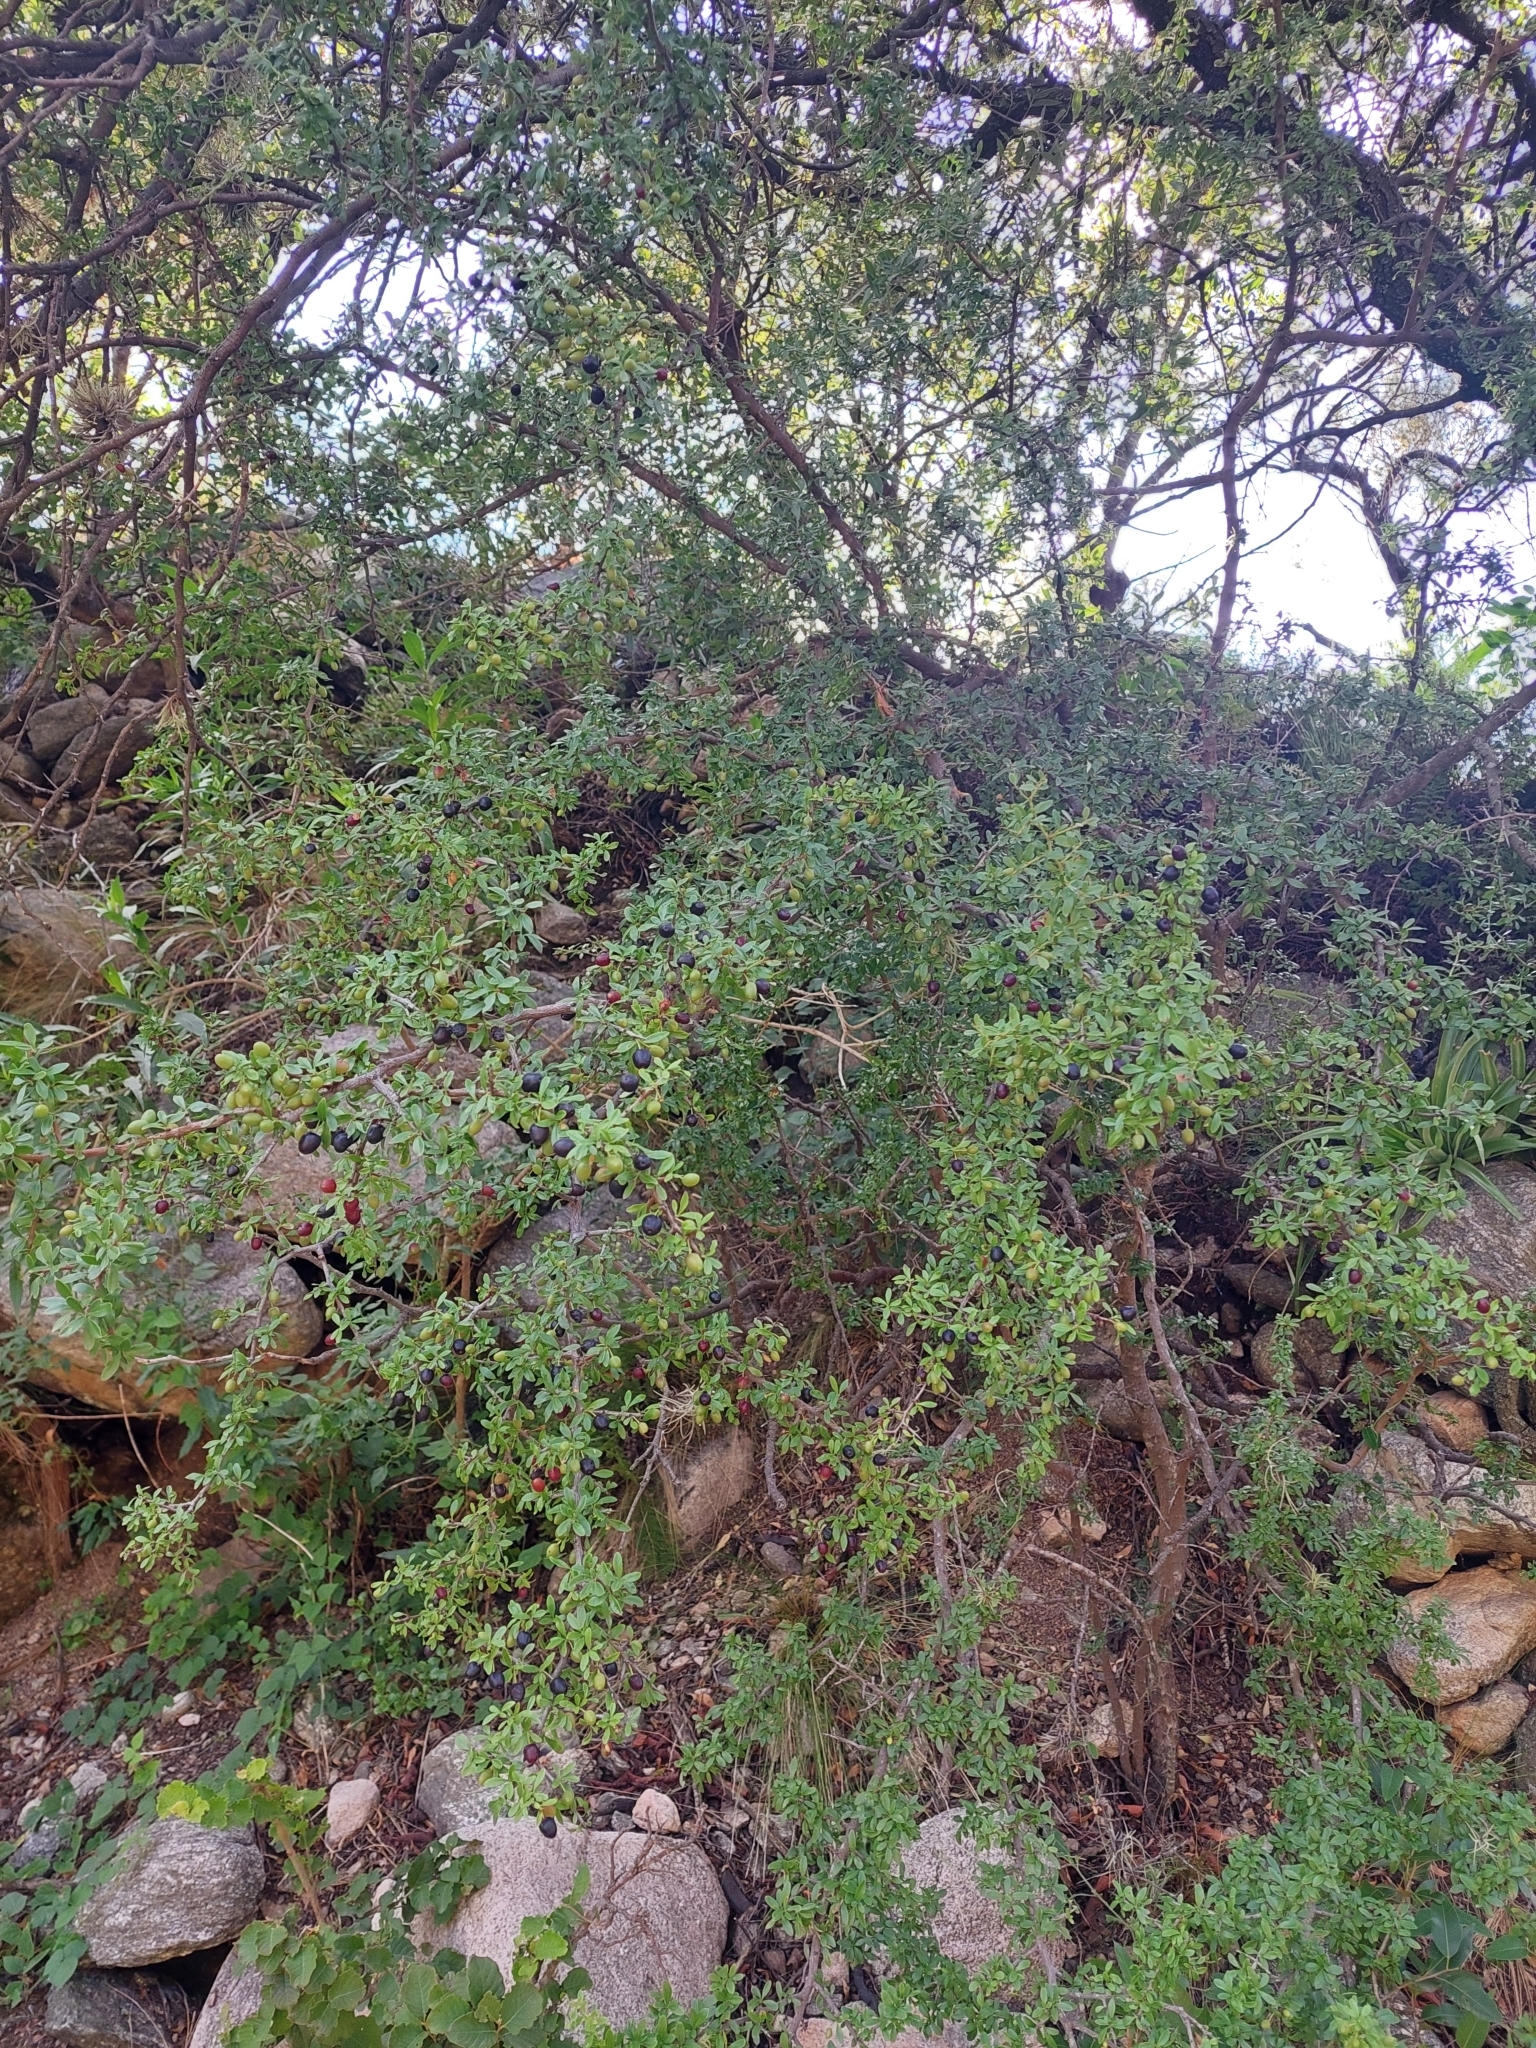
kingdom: Plantae
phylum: Tracheophyta
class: Magnoliopsida
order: Rosales
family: Rhamnaceae
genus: Condalia
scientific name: Condalia microphylla
